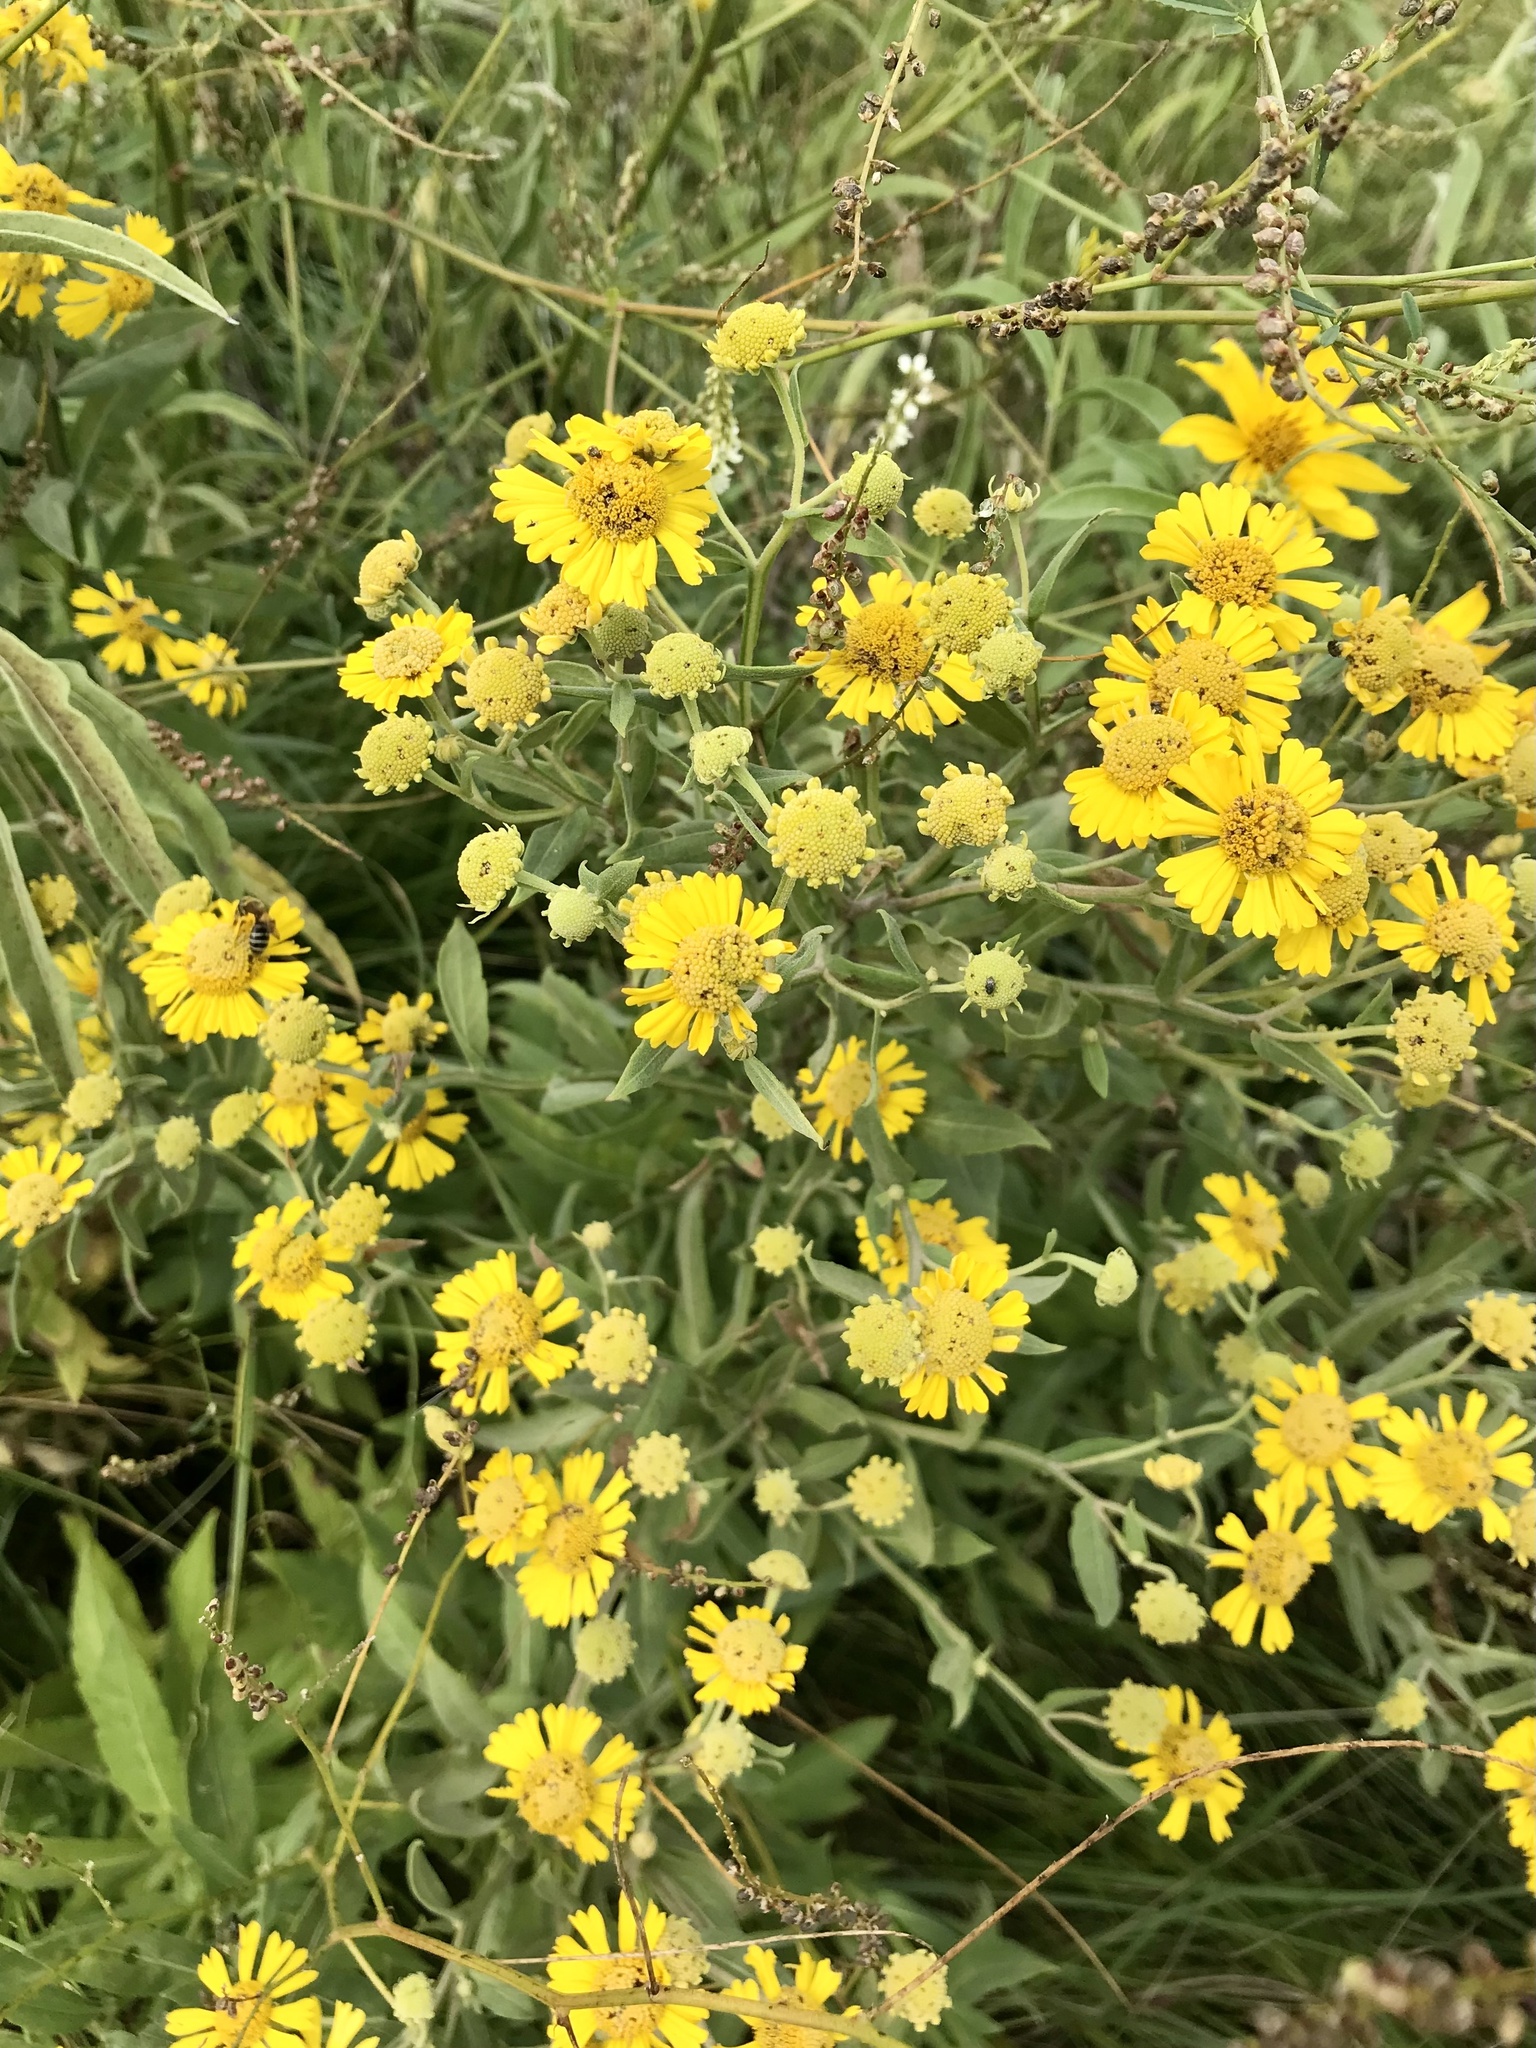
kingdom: Plantae
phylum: Tracheophyta
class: Magnoliopsida
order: Asterales
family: Asteraceae
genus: Helenium
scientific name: Helenium autumnale
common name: Sneezeweed
